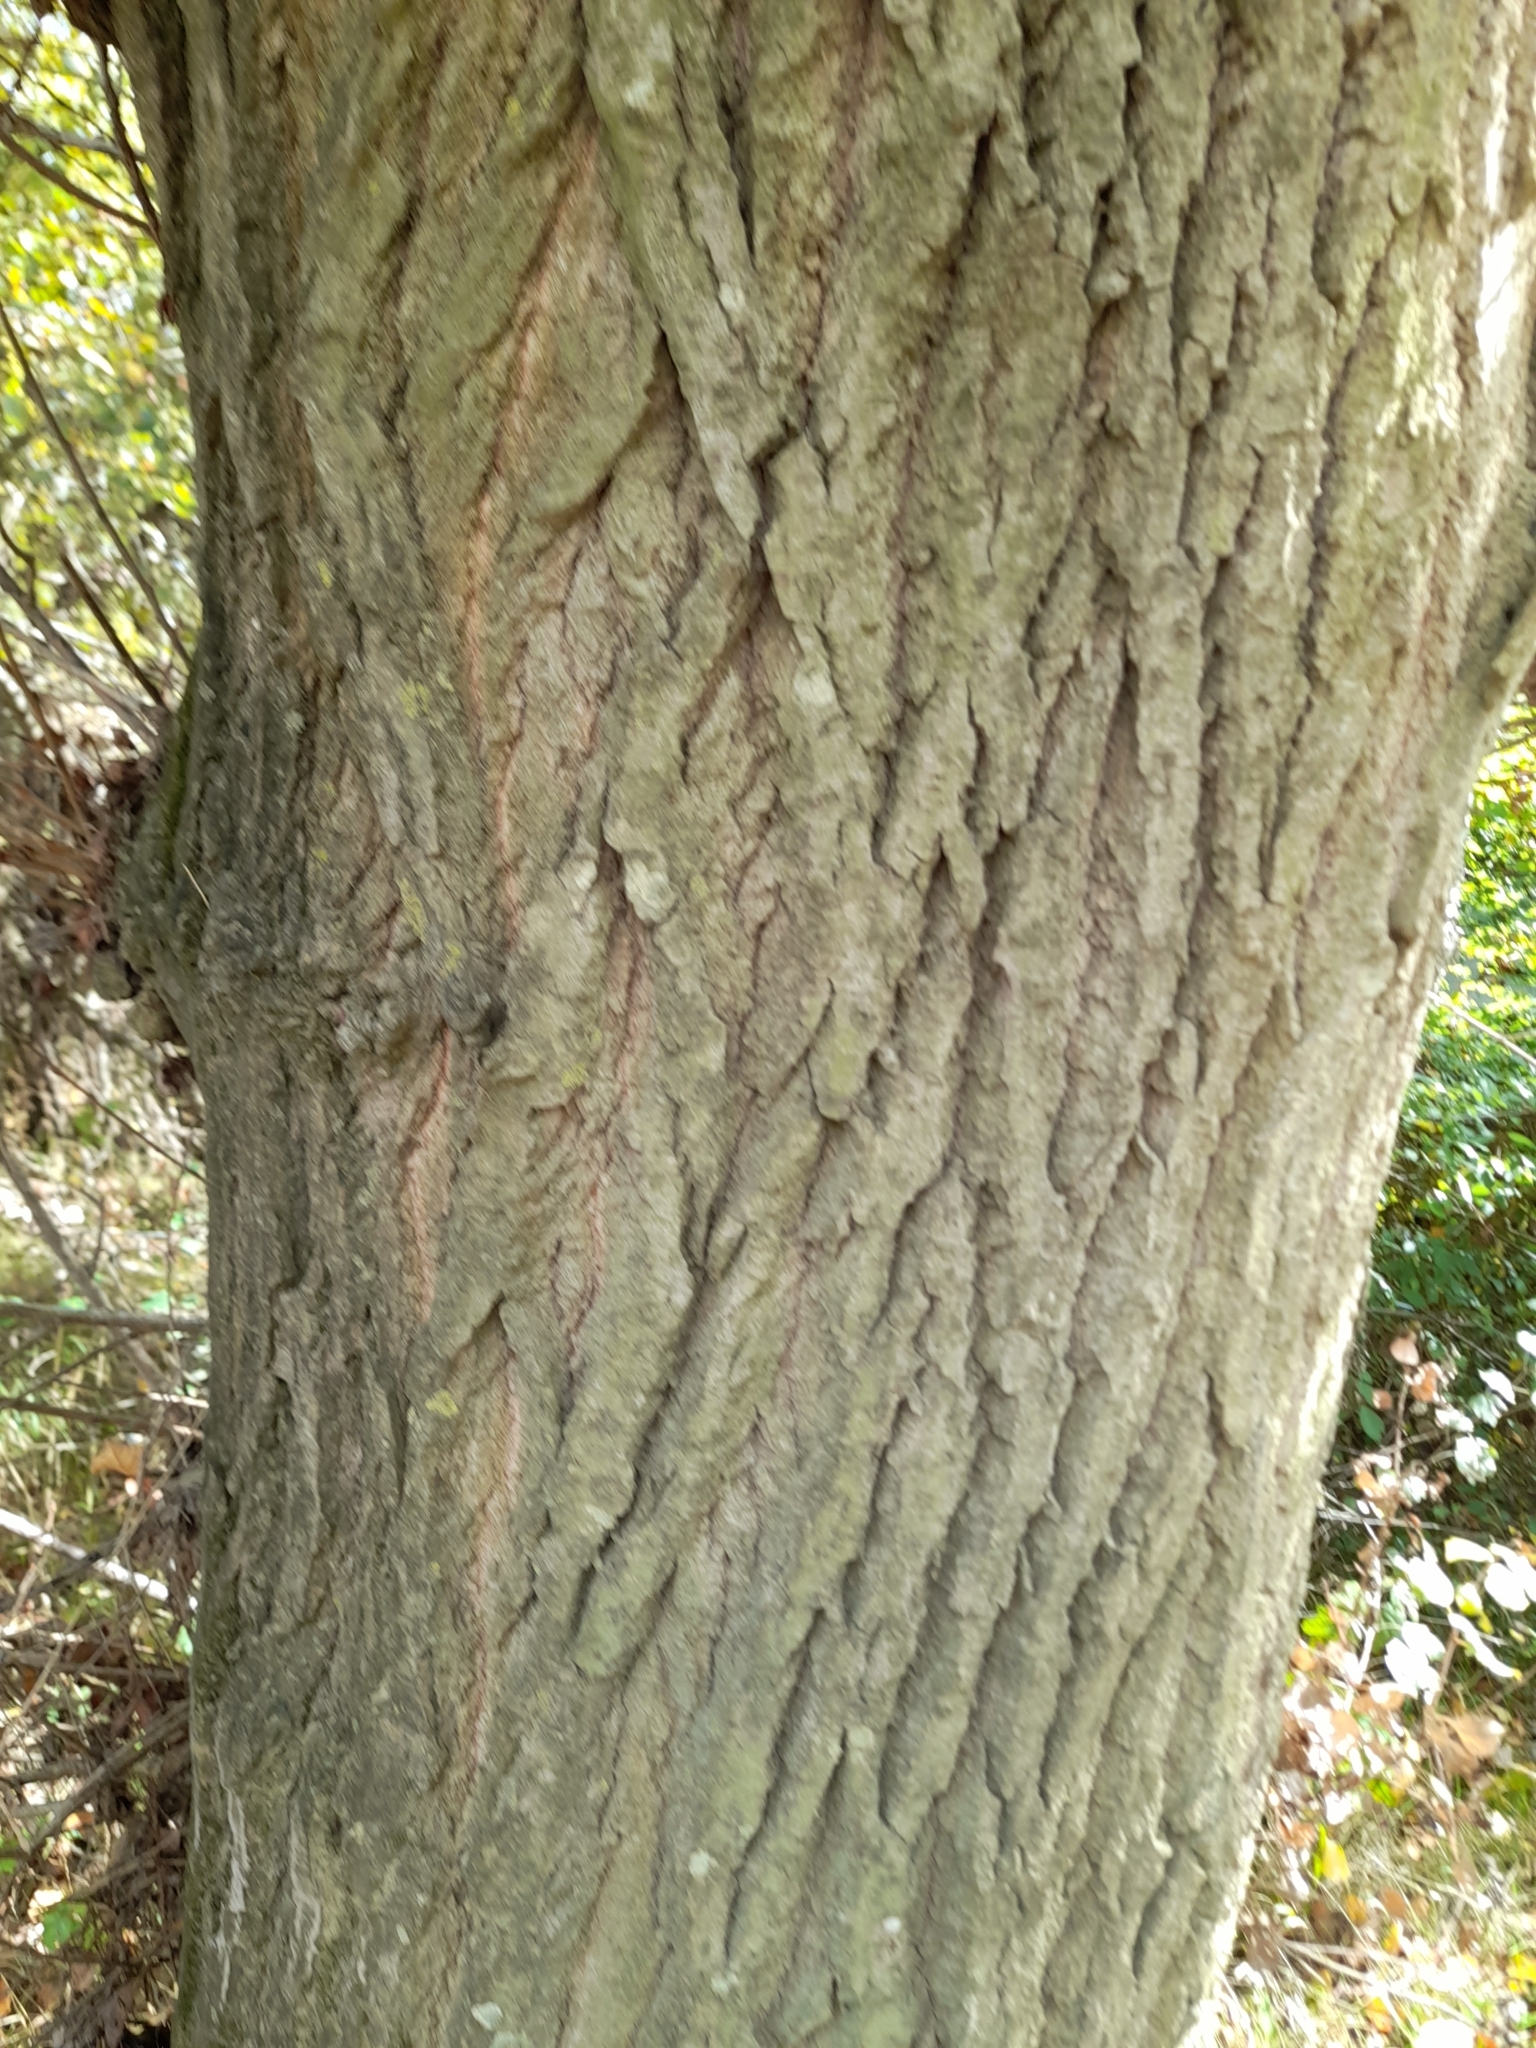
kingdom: Plantae
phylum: Tracheophyta
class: Magnoliopsida
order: Malpighiales
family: Salicaceae
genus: Populus
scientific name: Populus nigra
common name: Black poplar
